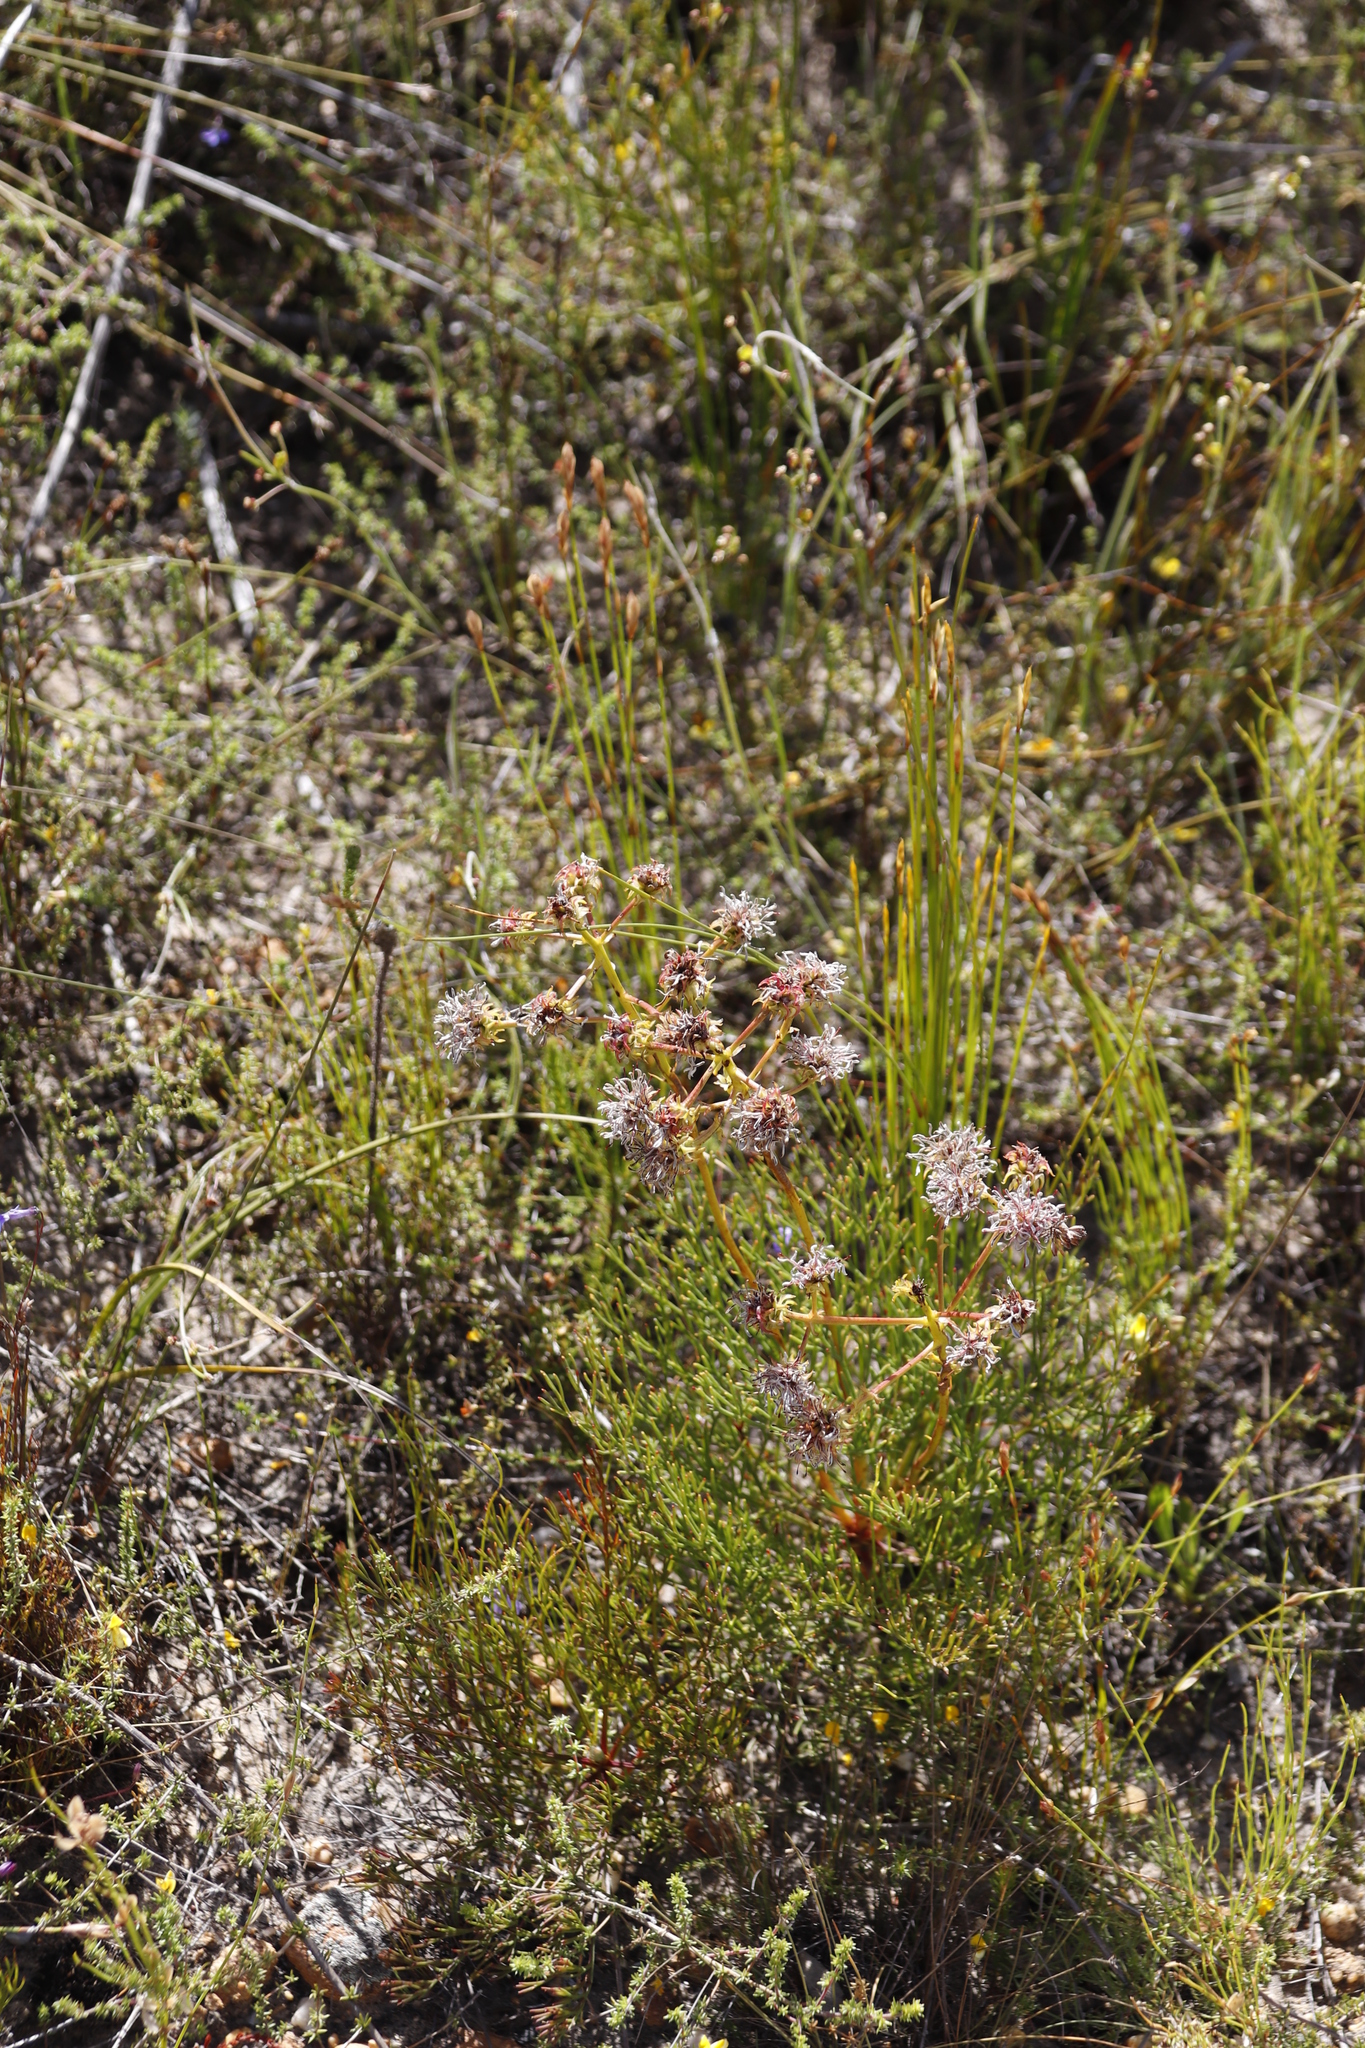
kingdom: Plantae
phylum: Tracheophyta
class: Magnoliopsida
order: Proteales
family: Proteaceae
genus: Serruria
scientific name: Serruria elongata
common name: Long-stalk spiderhead
